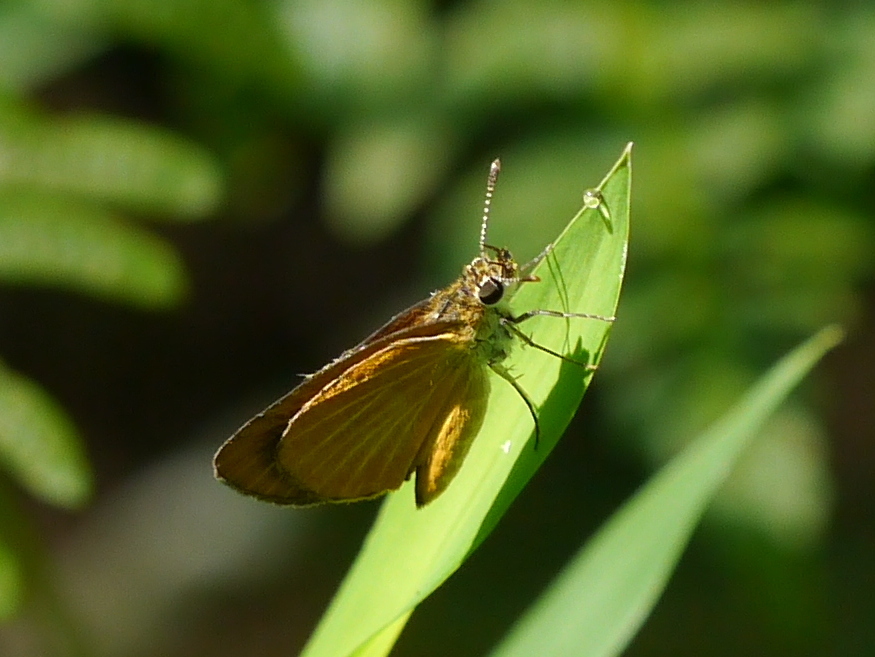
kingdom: Animalia
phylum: Arthropoda
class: Insecta
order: Lepidoptera
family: Hesperiidae
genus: Ancyloxypha
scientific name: Ancyloxypha numitor
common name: Least skipper
